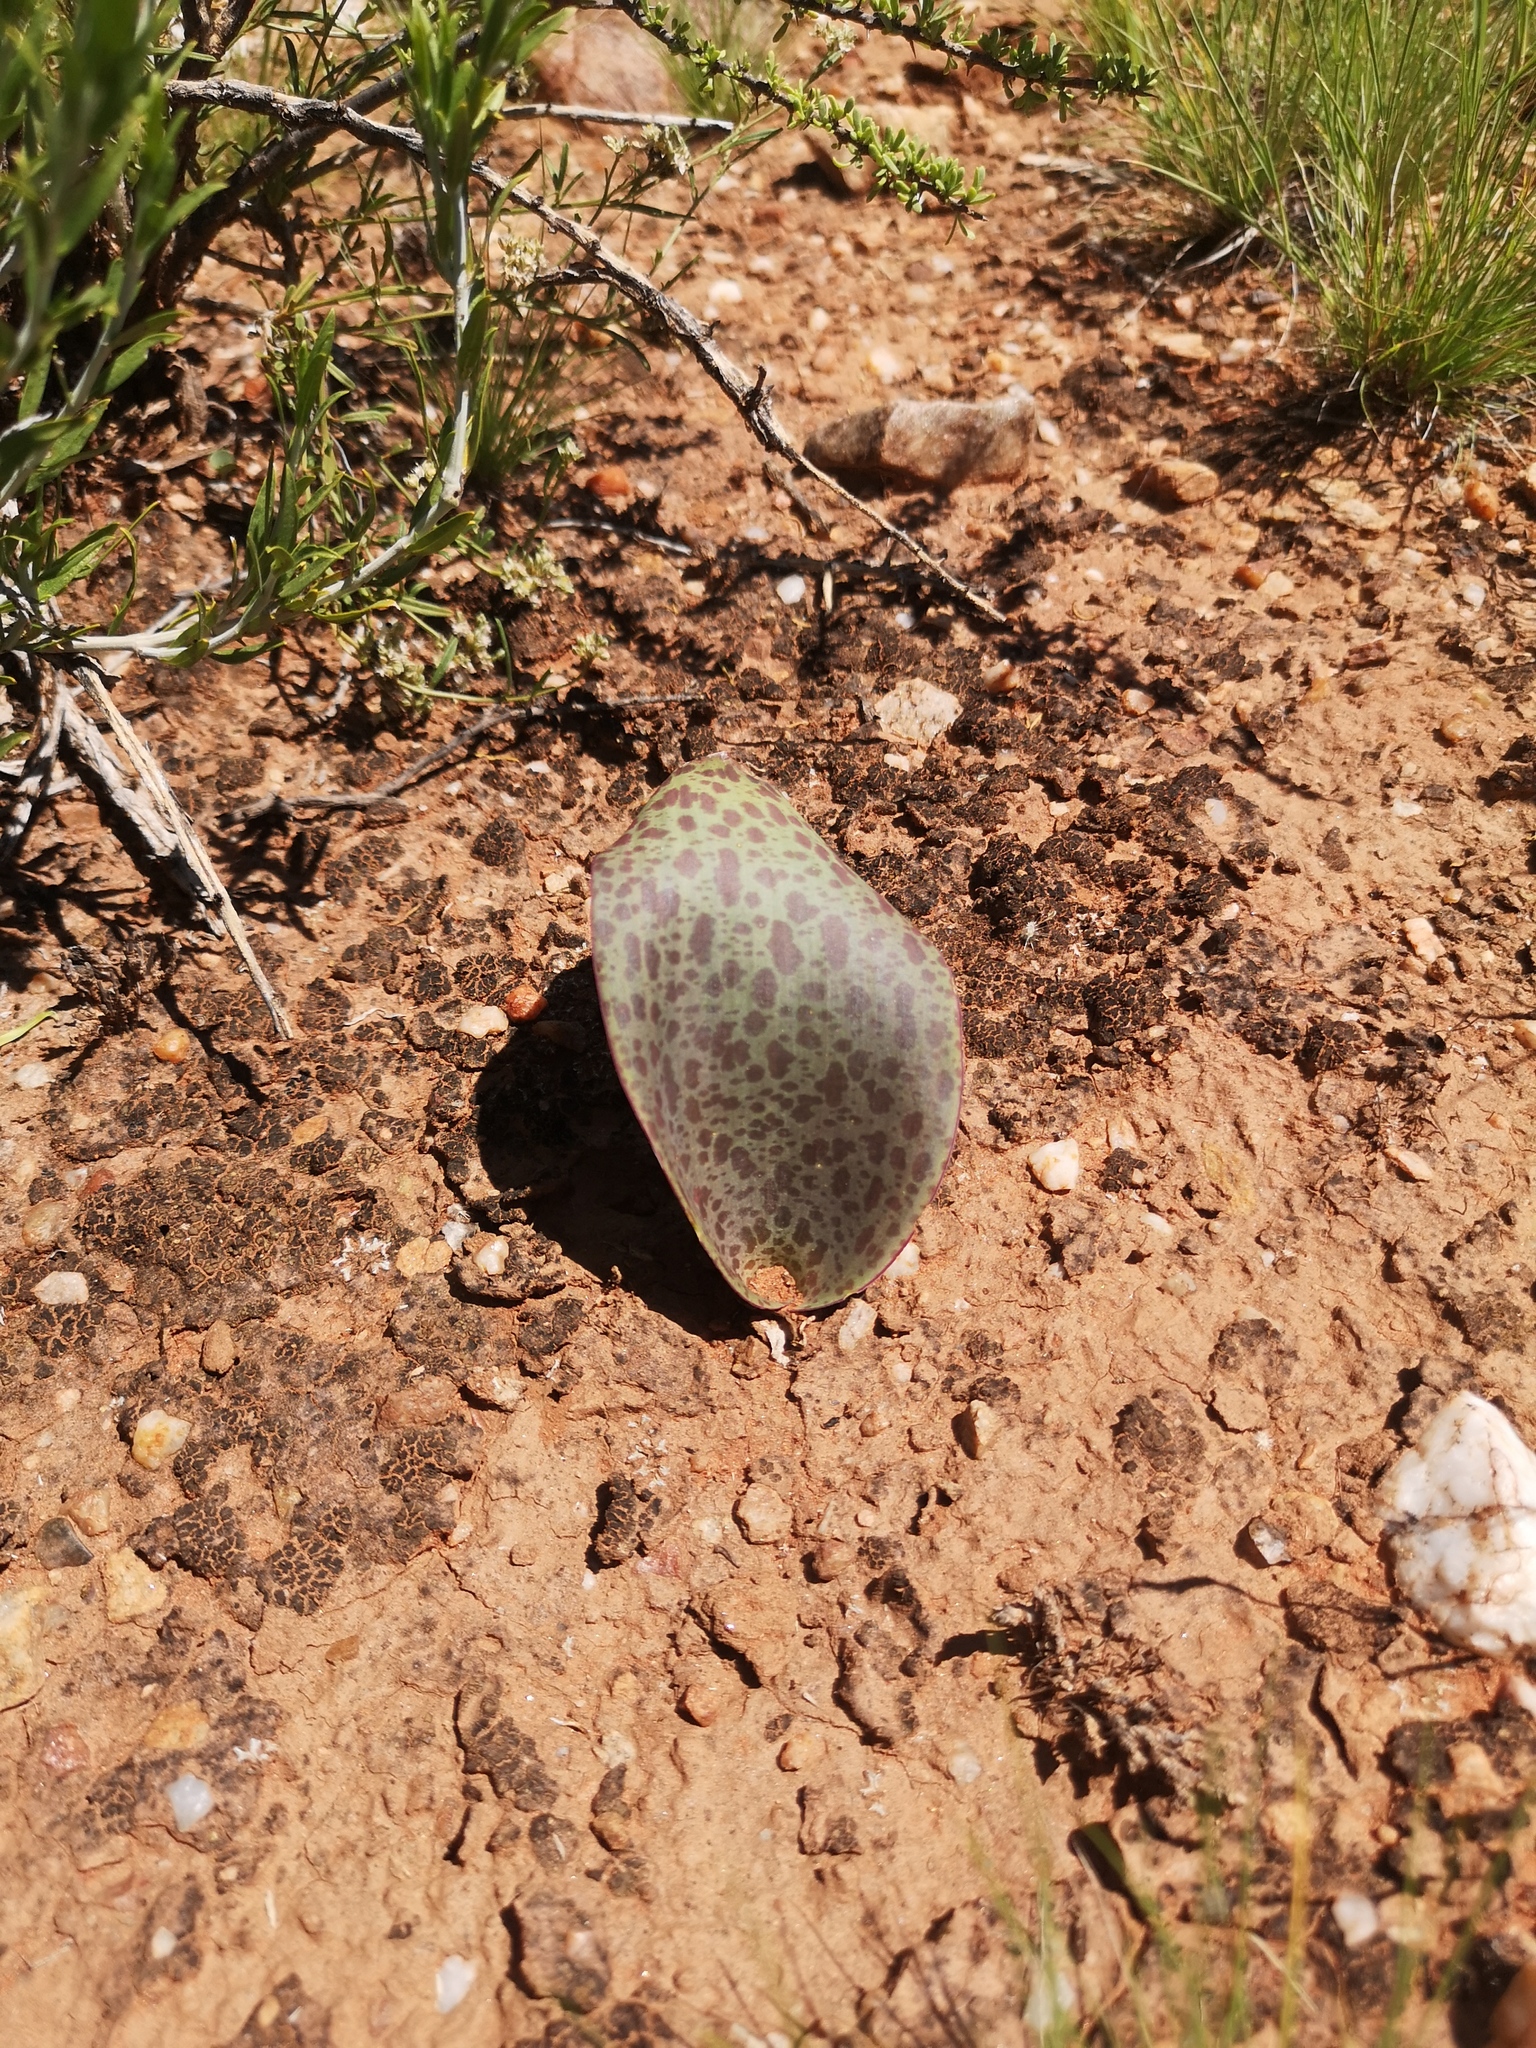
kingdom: Plantae
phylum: Tracheophyta
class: Liliopsida
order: Asparagales
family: Asparagaceae
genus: Ledebouria
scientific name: Ledebouria
